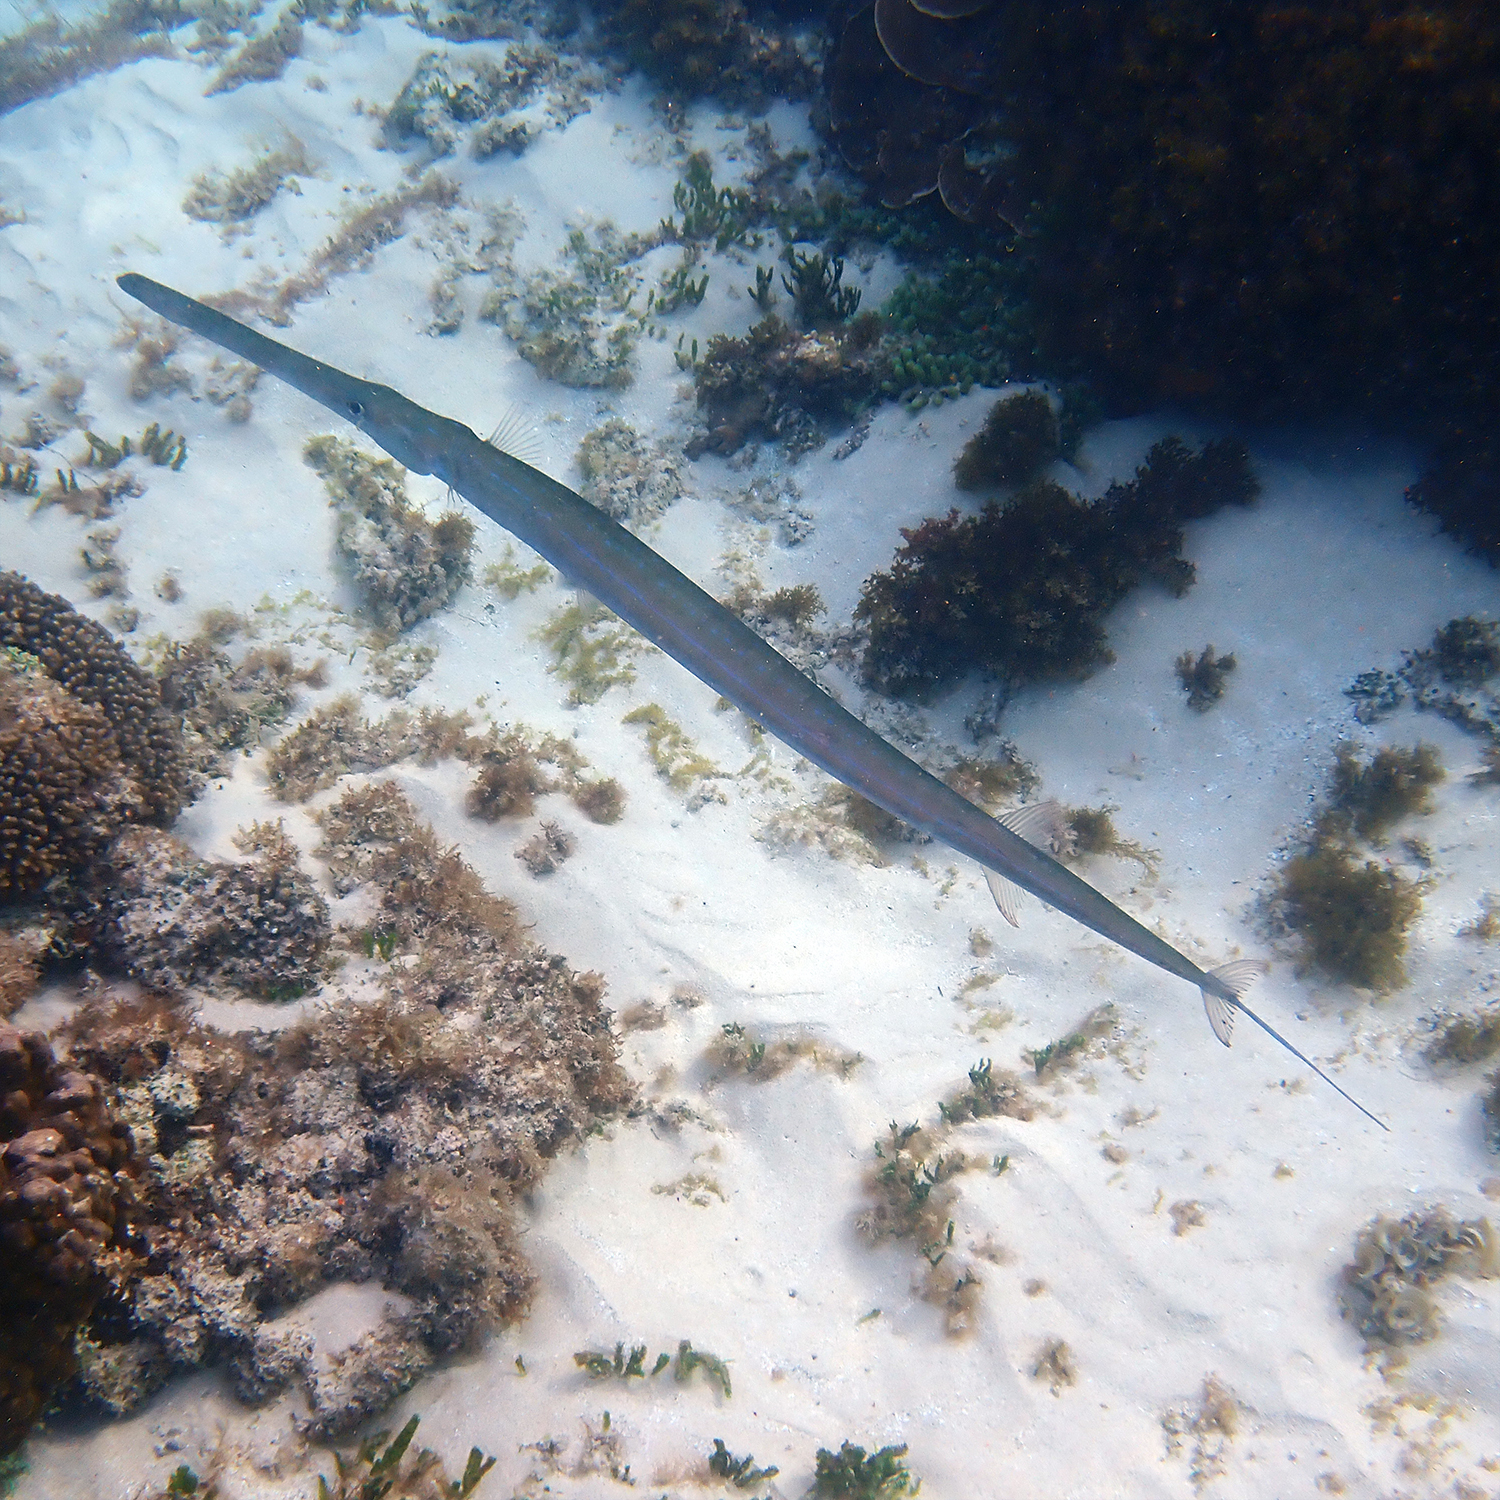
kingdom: Animalia
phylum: Chordata
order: Syngnathiformes
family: Fistulariidae
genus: Fistularia
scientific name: Fistularia commersonii
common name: Bluespotted cornetfish
